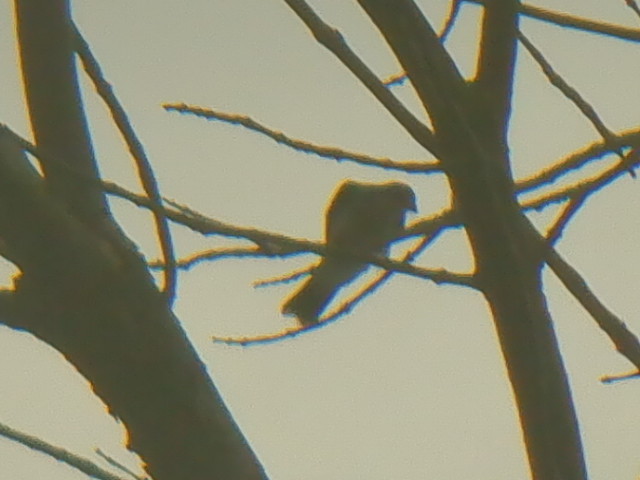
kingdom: Animalia
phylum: Chordata
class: Aves
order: Passeriformes
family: Tyrannidae
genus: Tyrannus
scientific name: Tyrannus tyrannus
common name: Eastern kingbird
